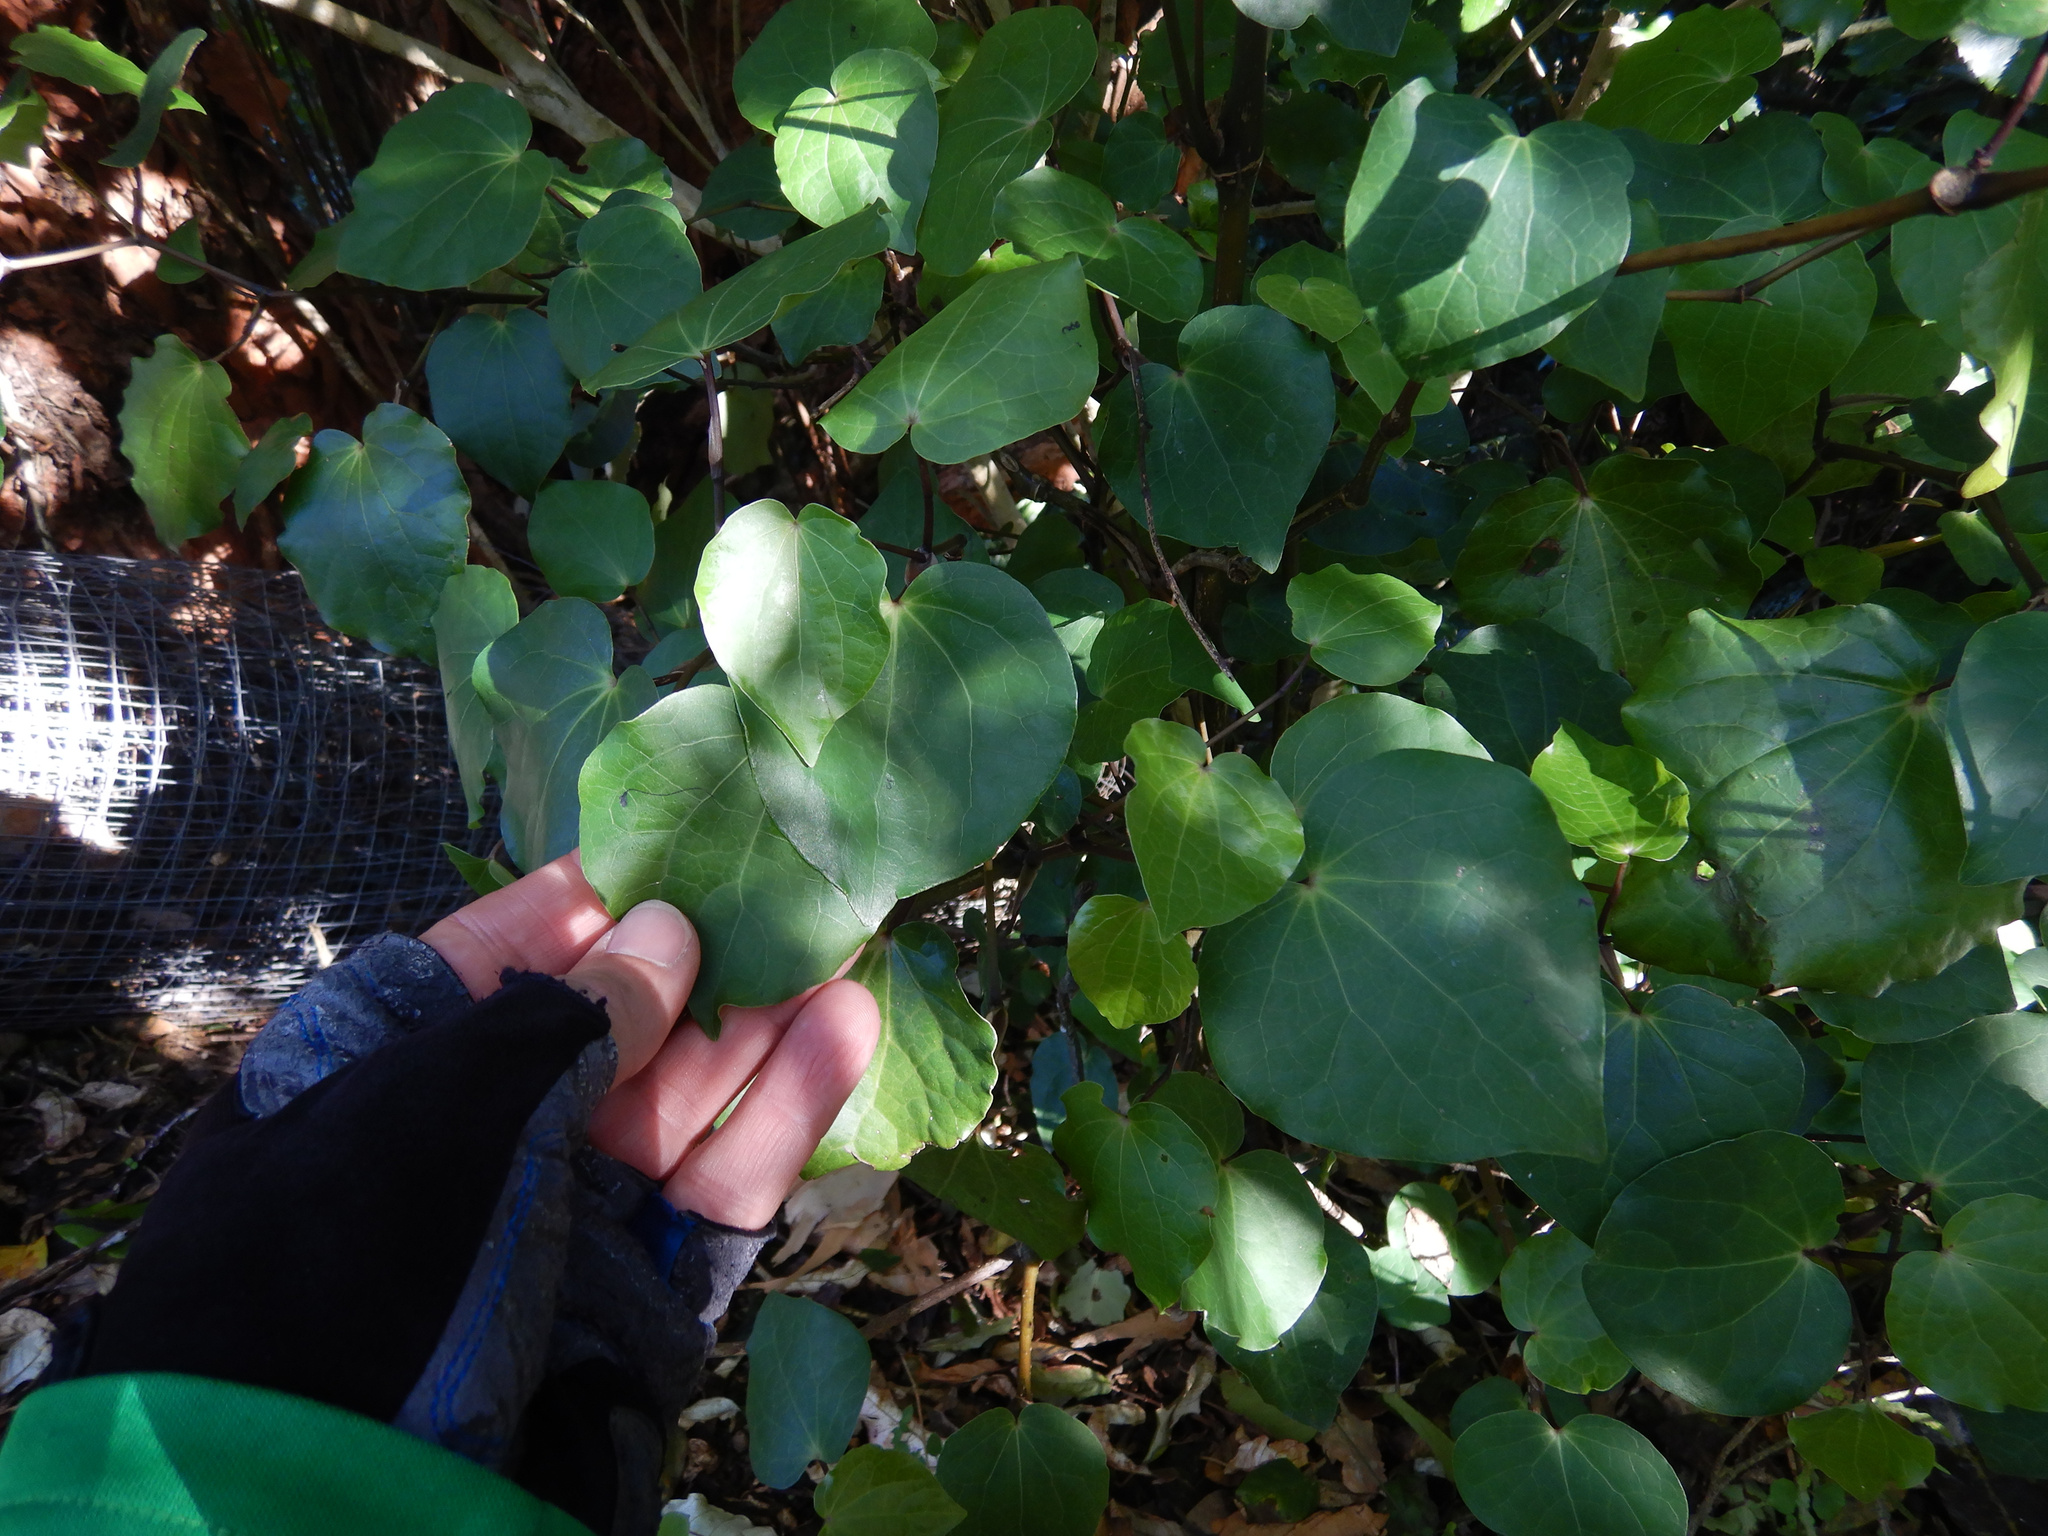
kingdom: Plantae
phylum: Tracheophyta
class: Magnoliopsida
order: Piperales
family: Piperaceae
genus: Macropiper
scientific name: Macropiper excelsum
